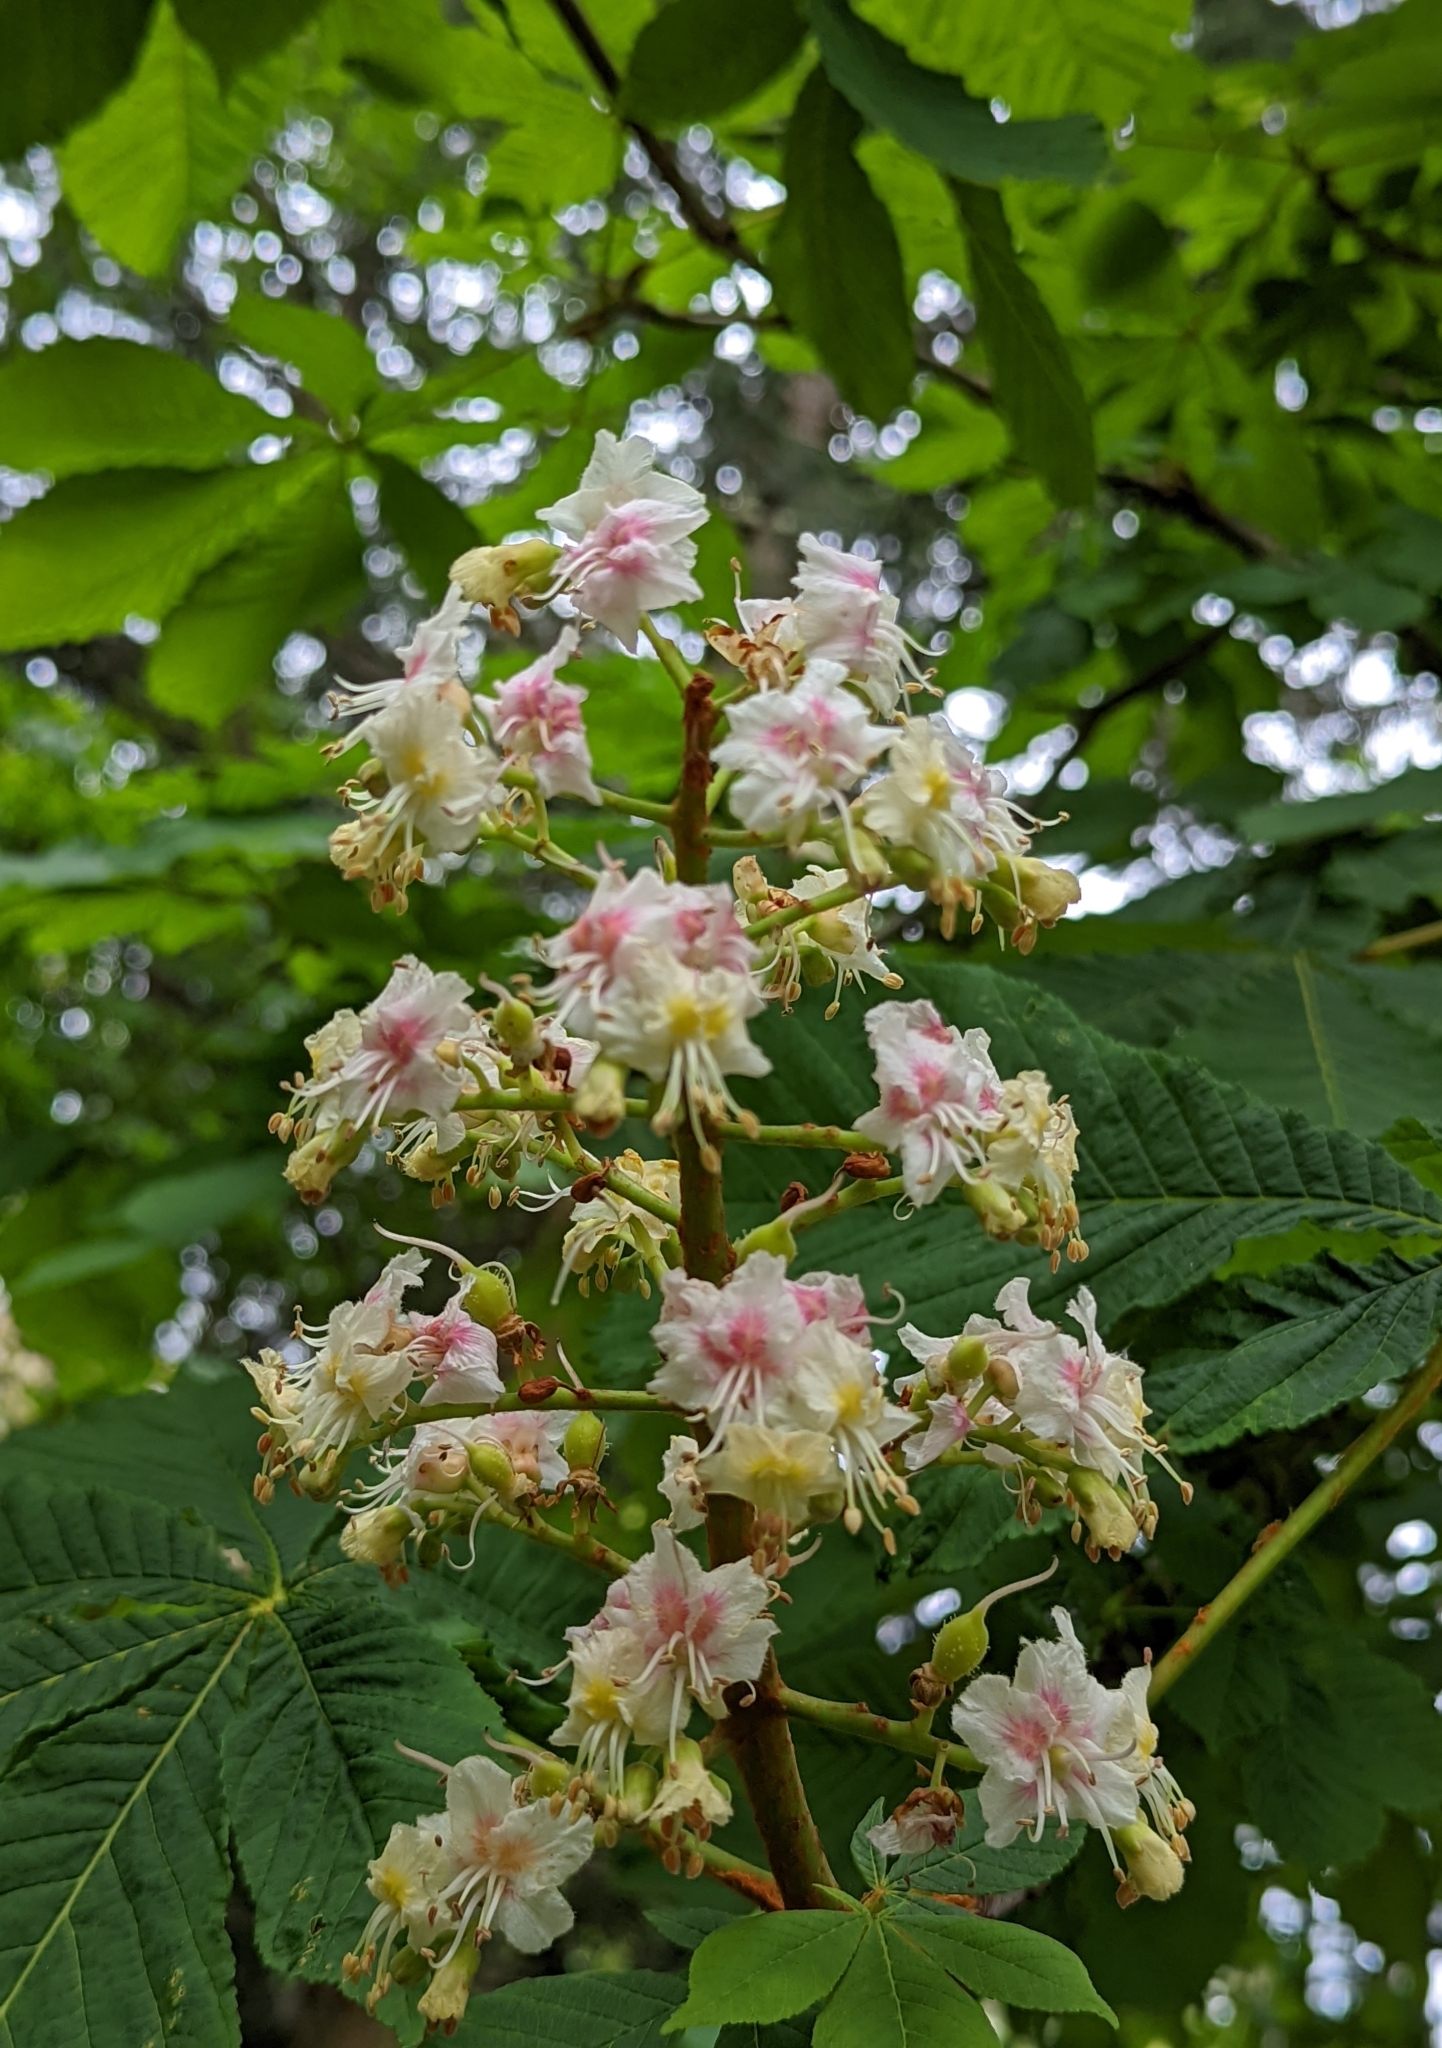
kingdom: Plantae
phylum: Tracheophyta
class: Magnoliopsida
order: Sapindales
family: Sapindaceae
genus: Aesculus
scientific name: Aesculus hippocastanum
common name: Horse-chestnut
